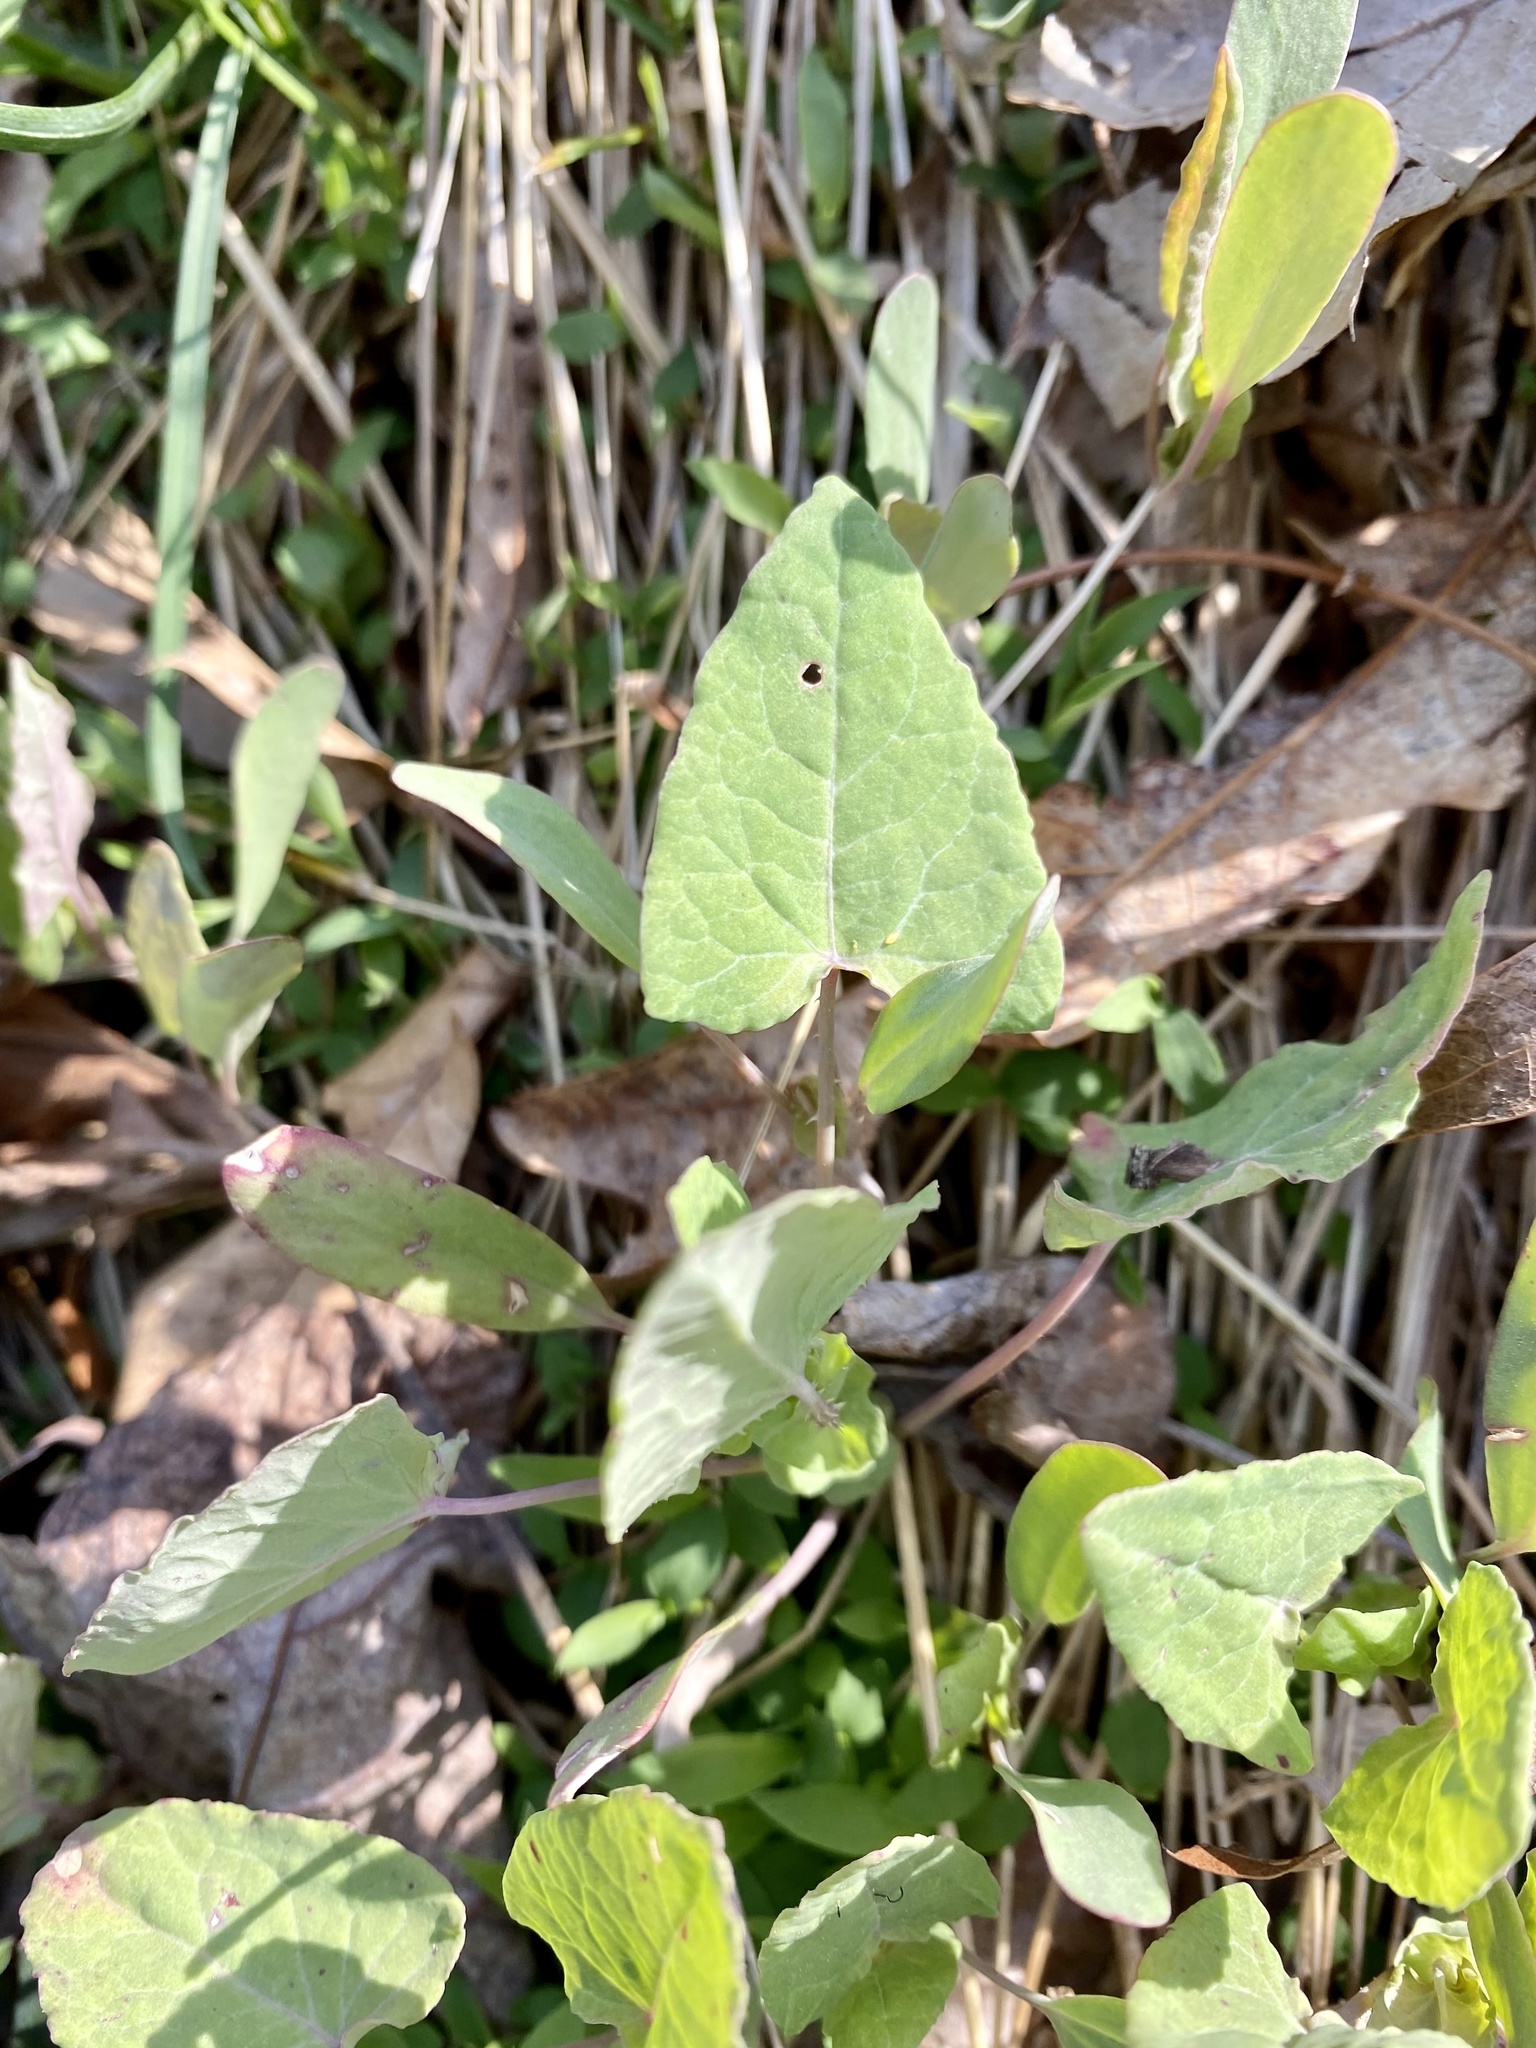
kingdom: Plantae
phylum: Tracheophyta
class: Magnoliopsida
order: Caryophyllales
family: Polygonaceae
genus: Persicaria
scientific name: Persicaria perfoliata
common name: Asiatic tearthumb
